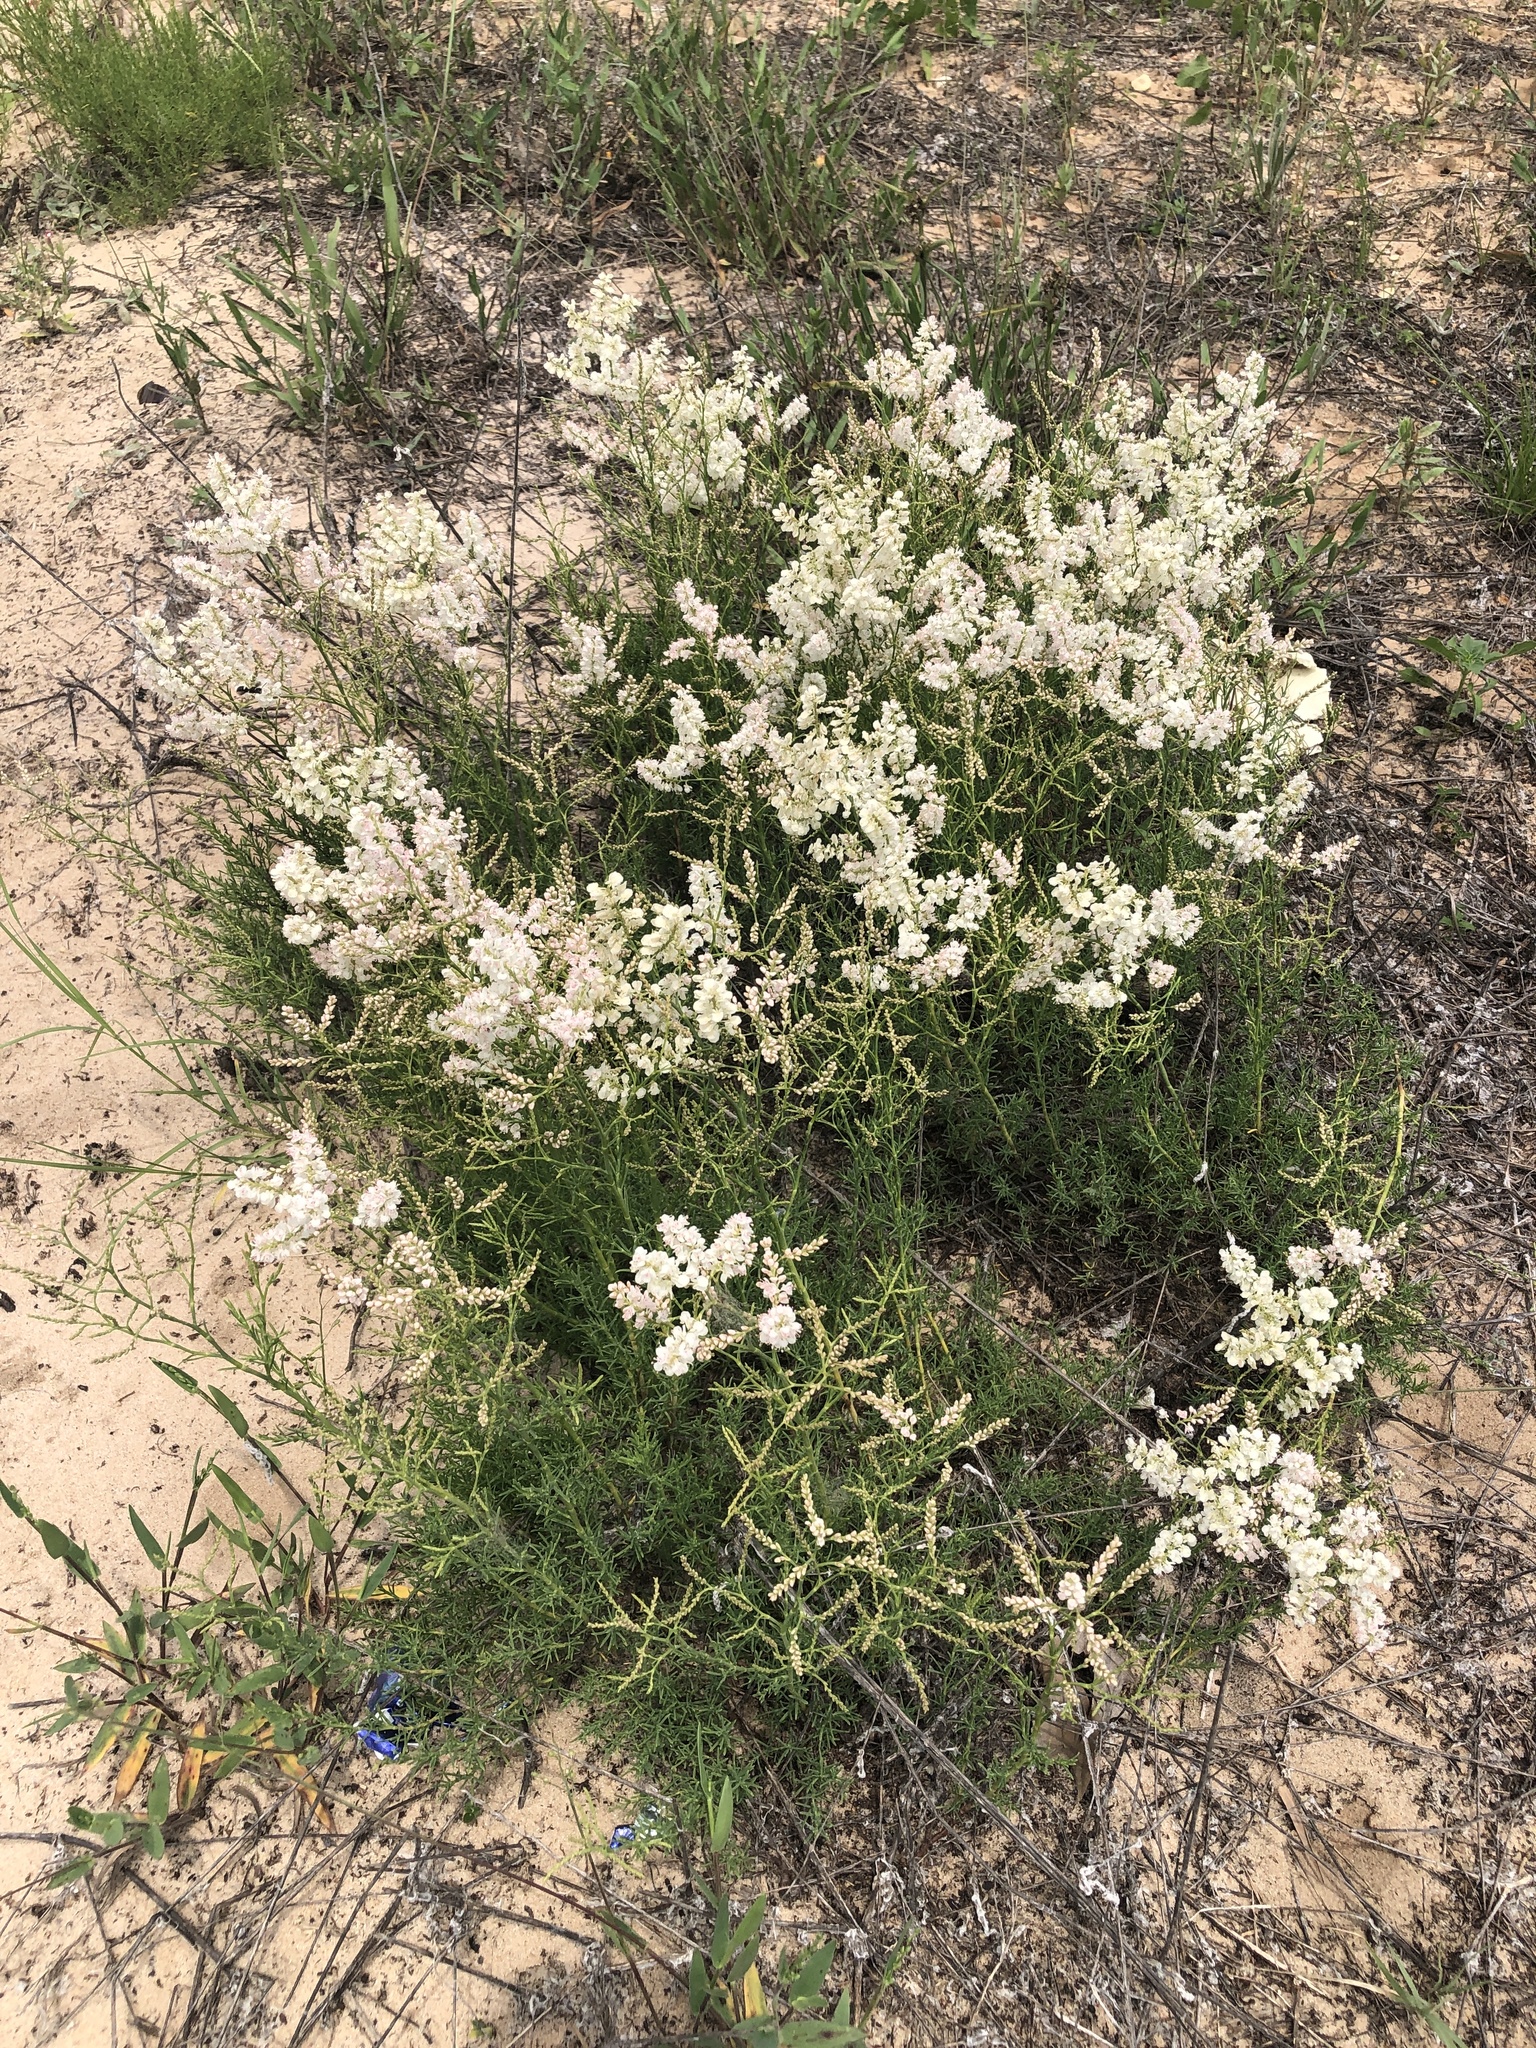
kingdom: Plantae
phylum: Tracheophyta
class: Magnoliopsida
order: Caryophyllales
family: Polygonaceae
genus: Polygonella
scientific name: Polygonella americana
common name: Southern jointweed
